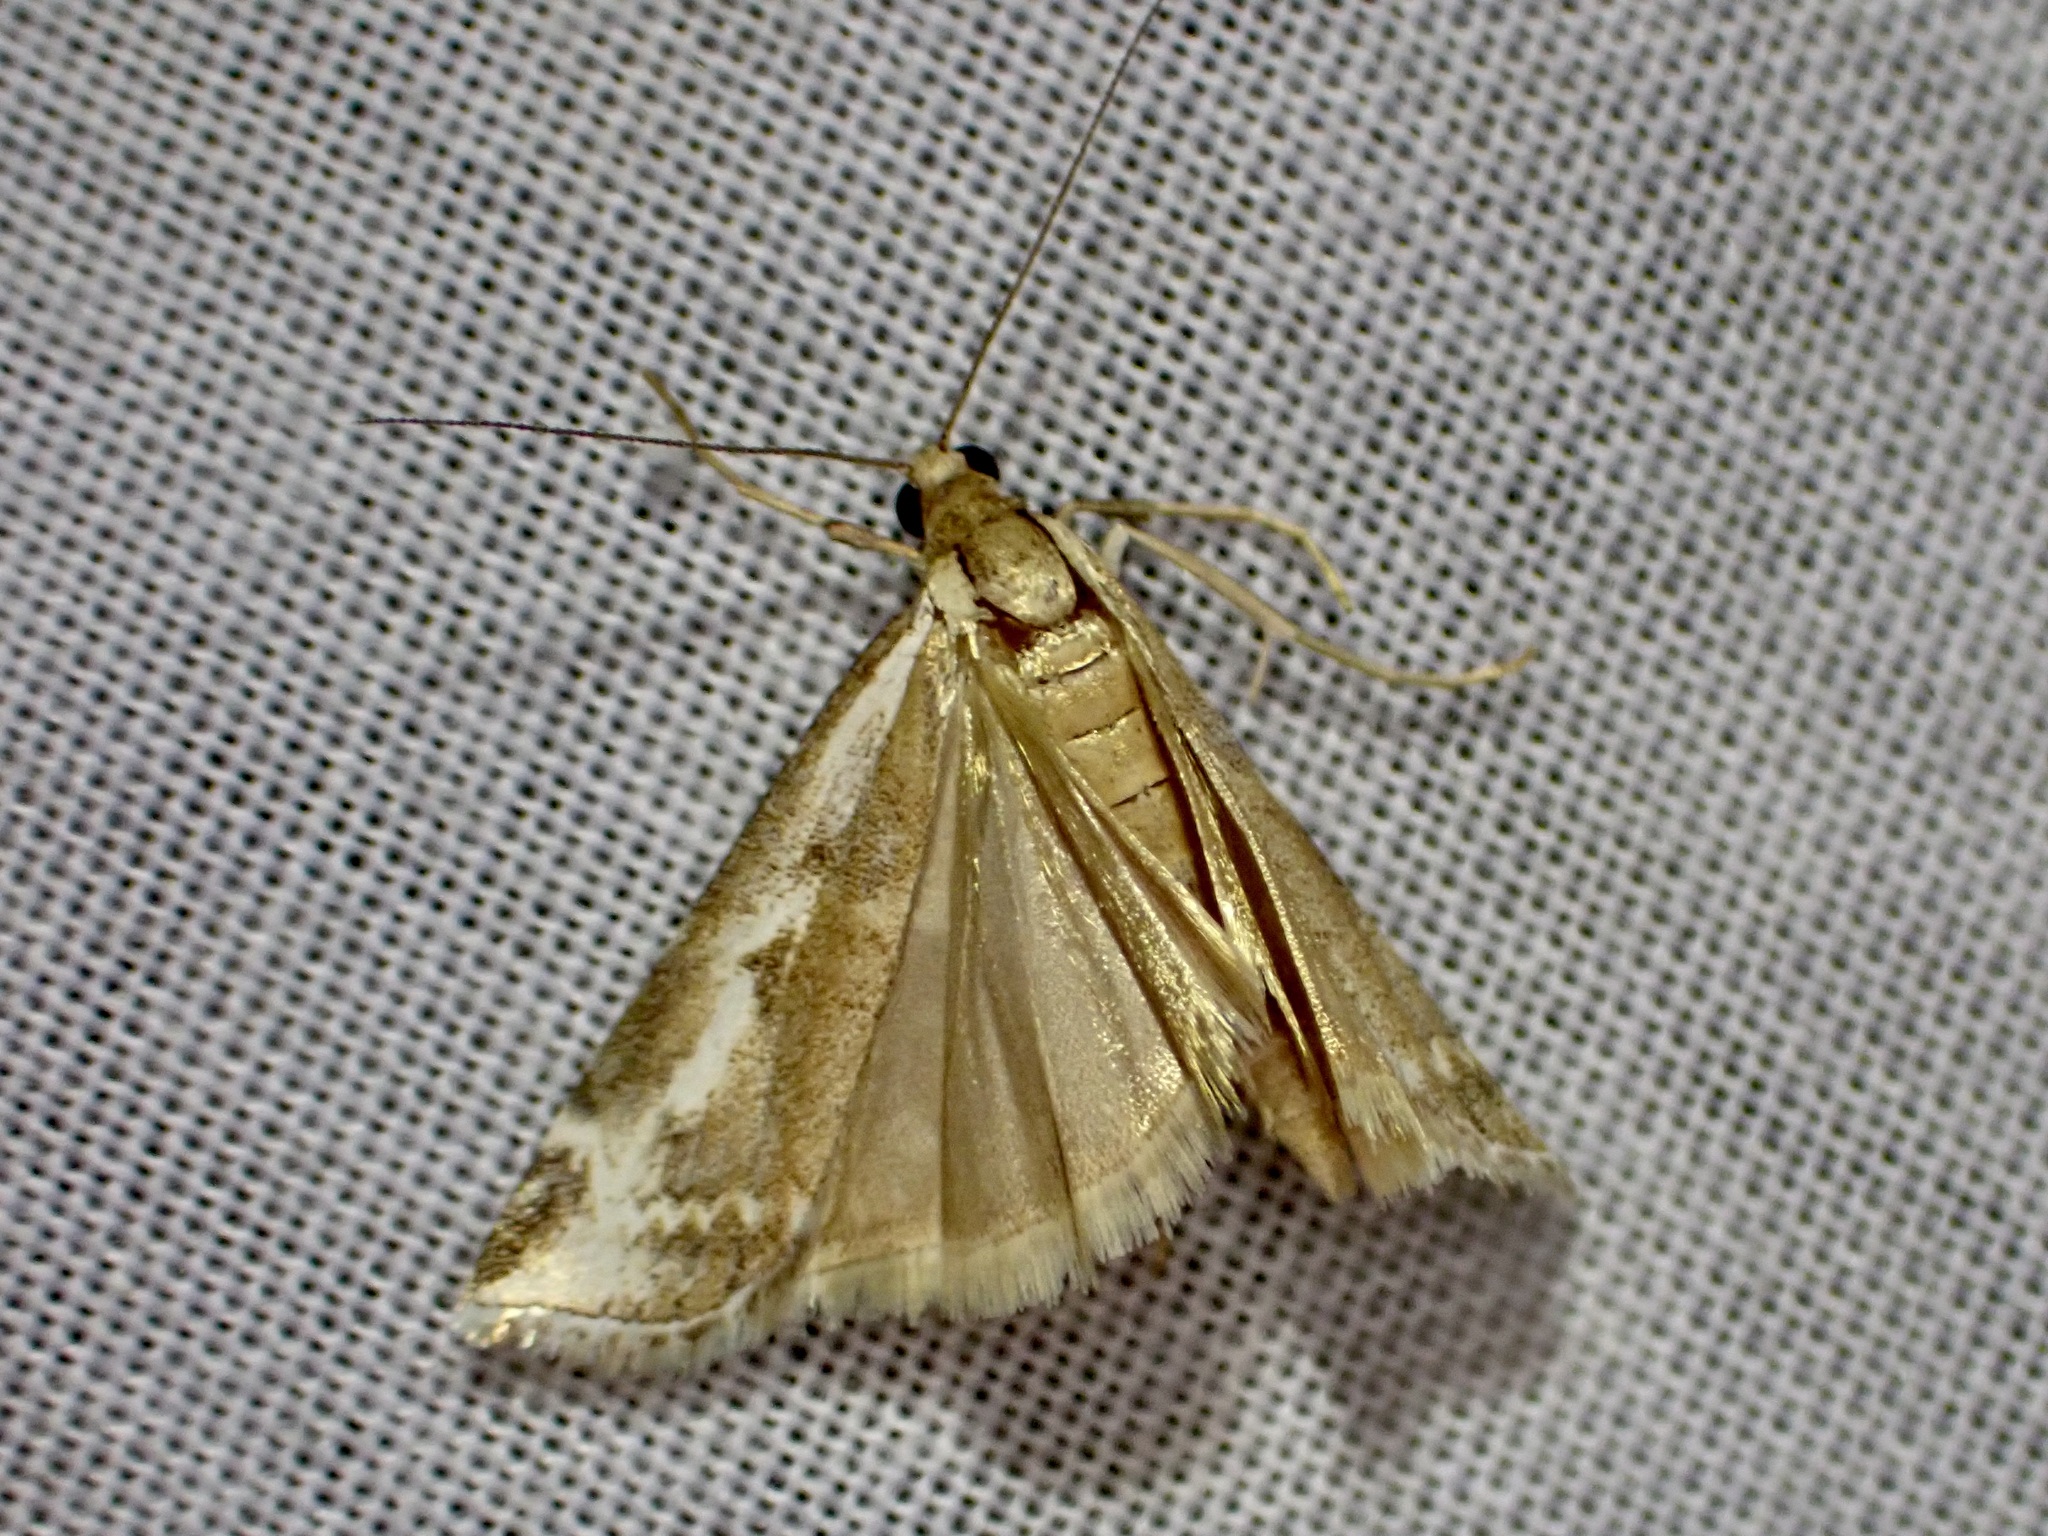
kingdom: Animalia
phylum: Arthropoda
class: Insecta
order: Lepidoptera
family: Crambidae
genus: Orocrambus
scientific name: Orocrambus vulgaris
